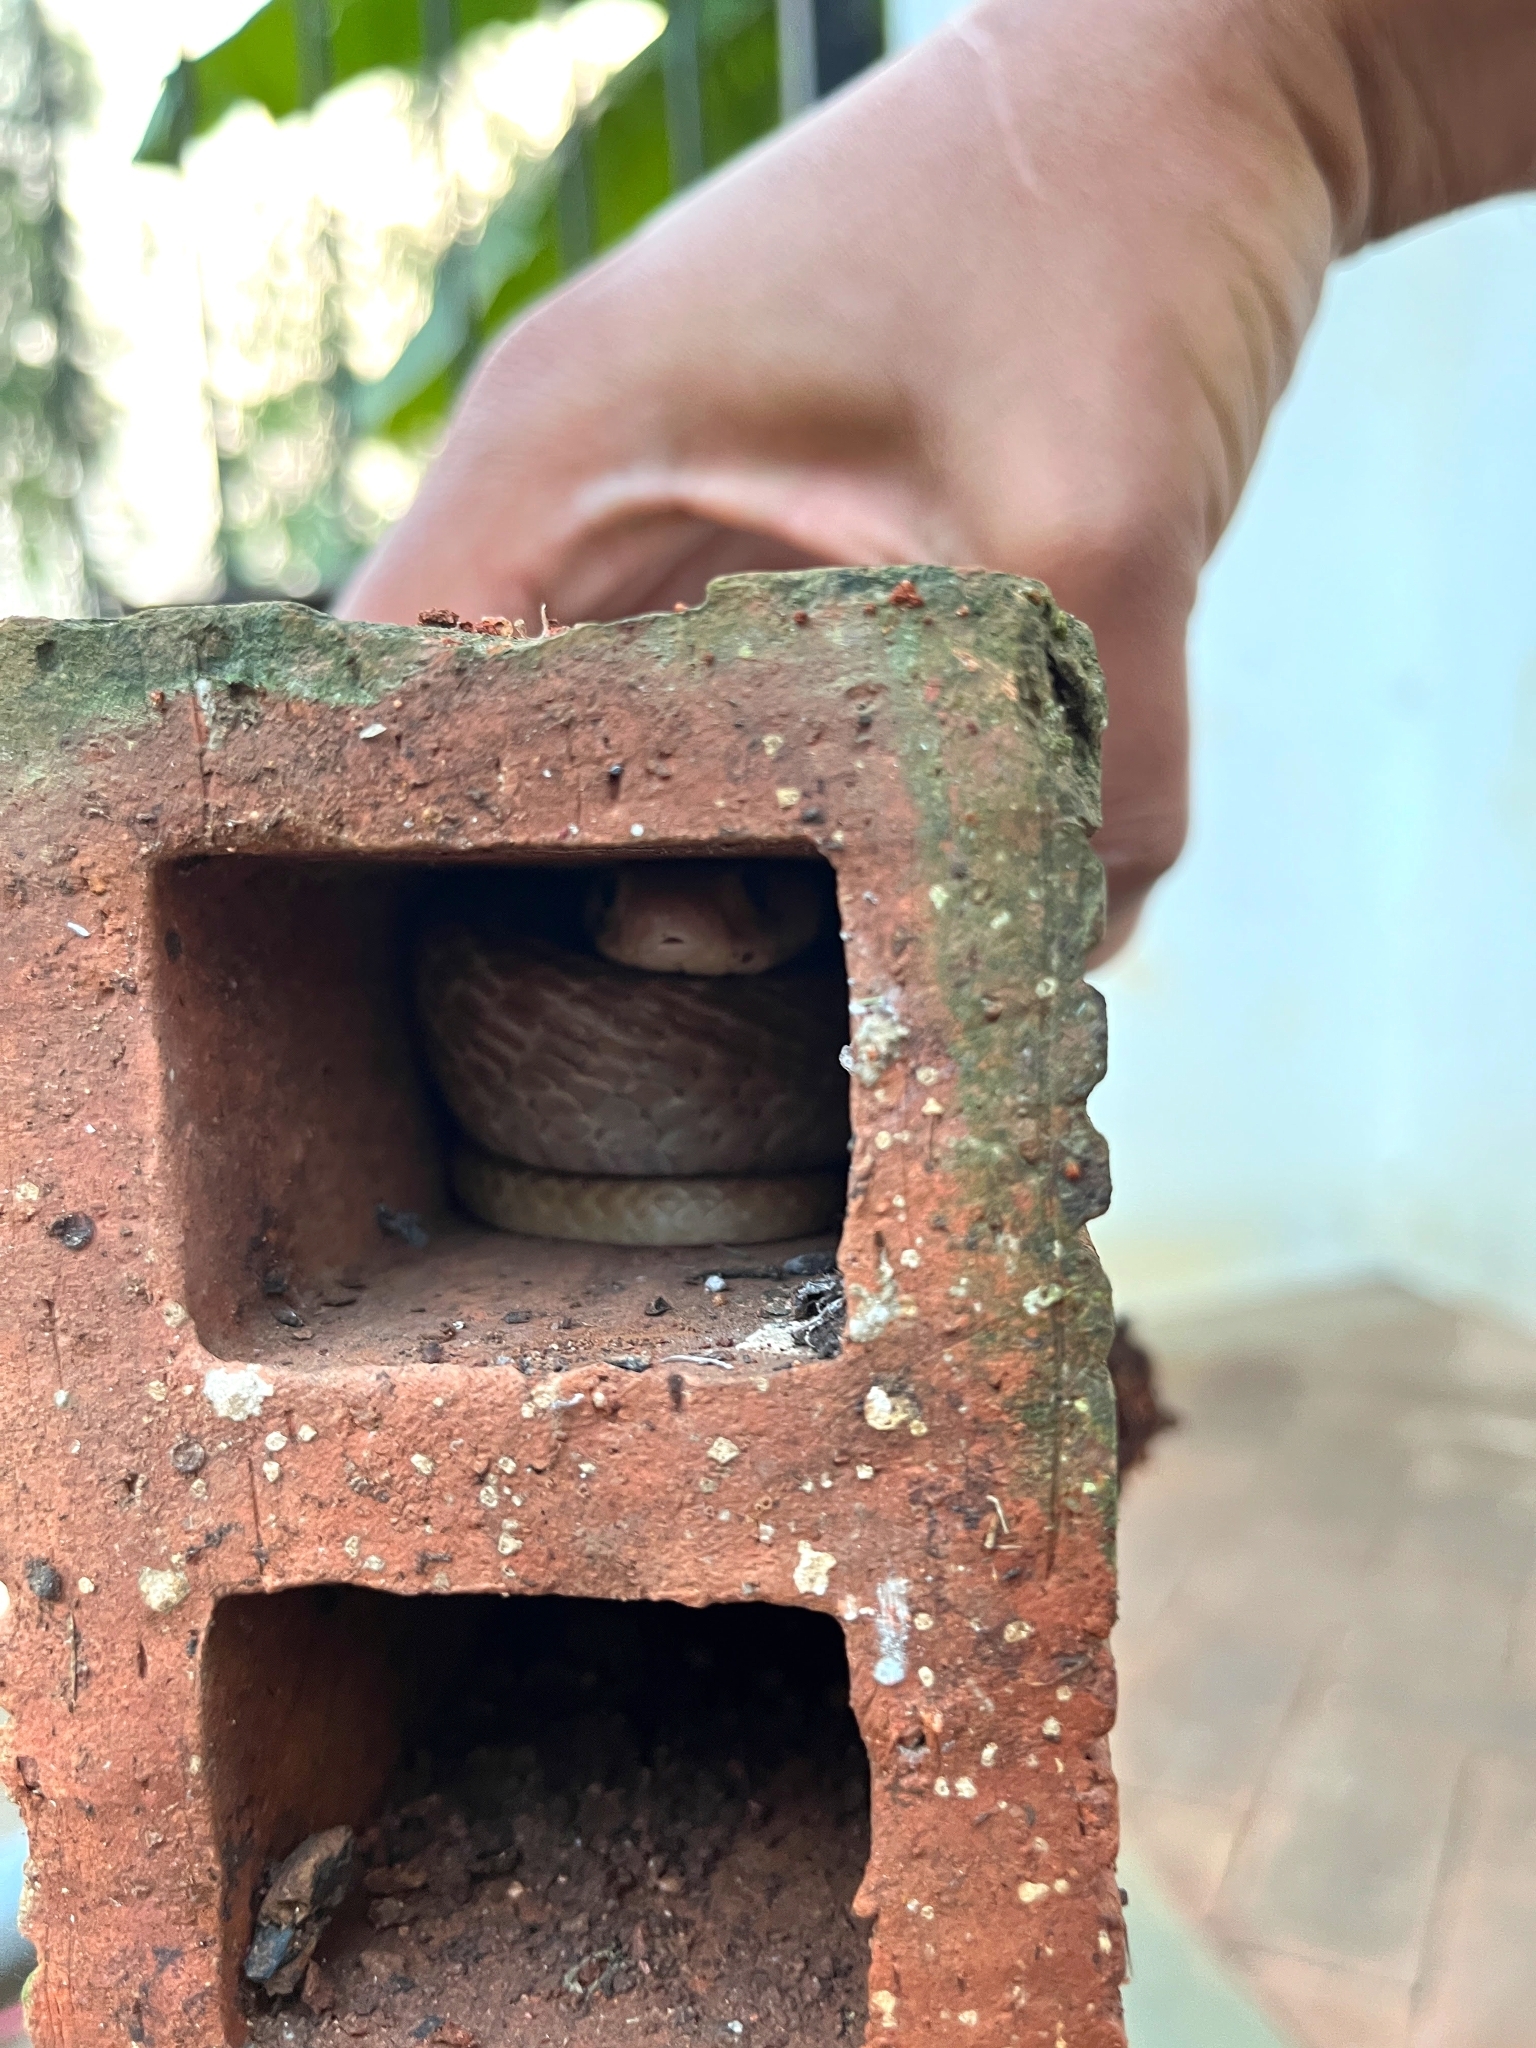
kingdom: Animalia
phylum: Chordata
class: Squamata
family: Elapidae
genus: Naja
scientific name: Naja naja
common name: Indian cobra
